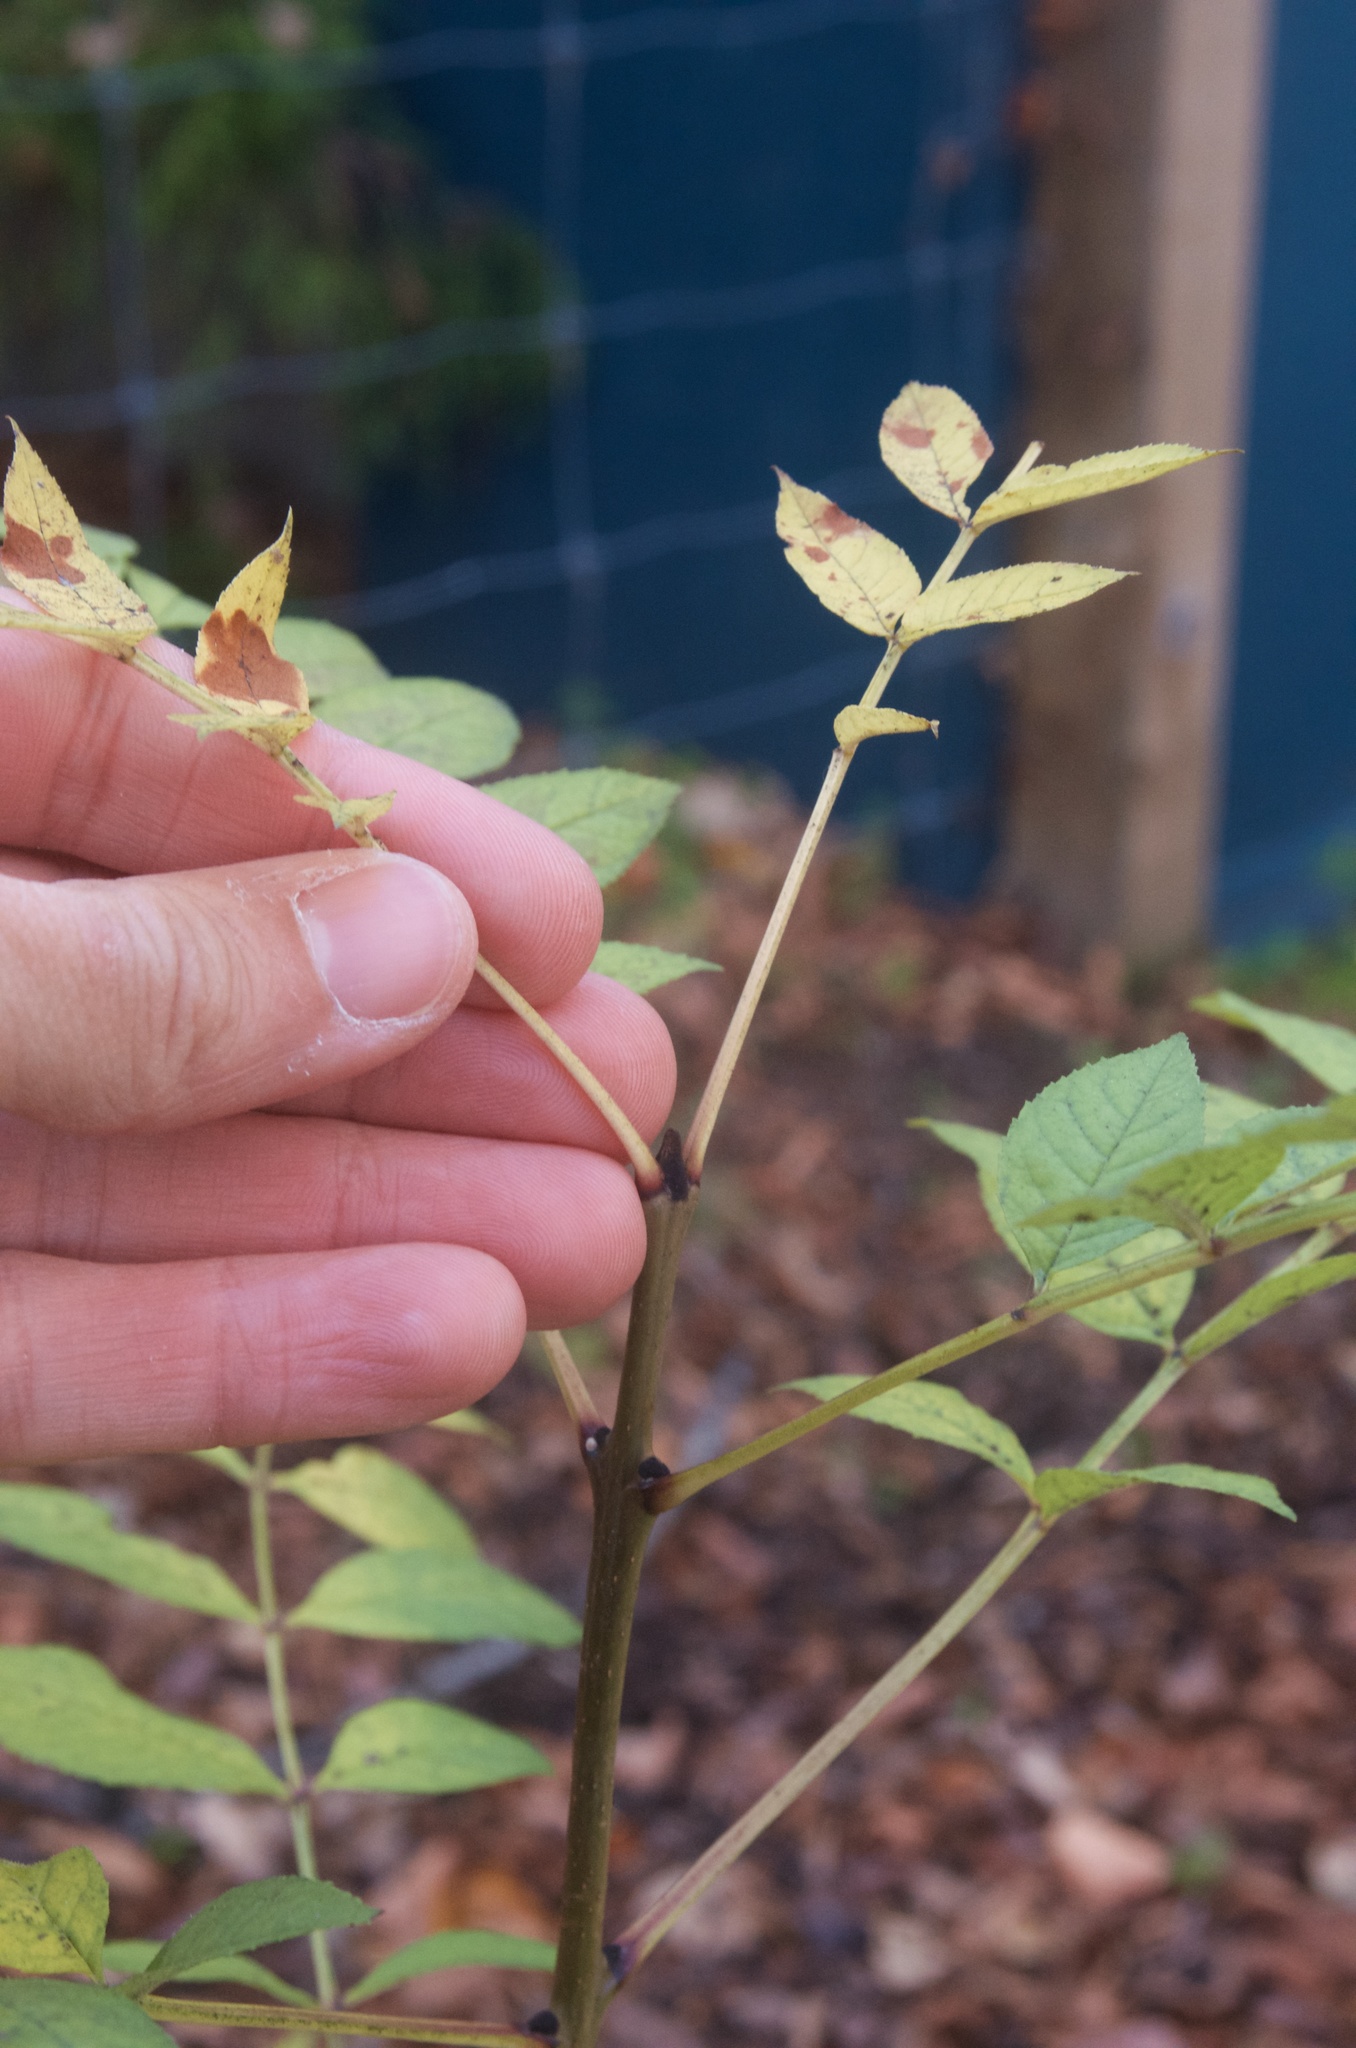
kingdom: Plantae
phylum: Tracheophyta
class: Magnoliopsida
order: Lamiales
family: Oleaceae
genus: Fraxinus
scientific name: Fraxinus excelsior
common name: European ash
